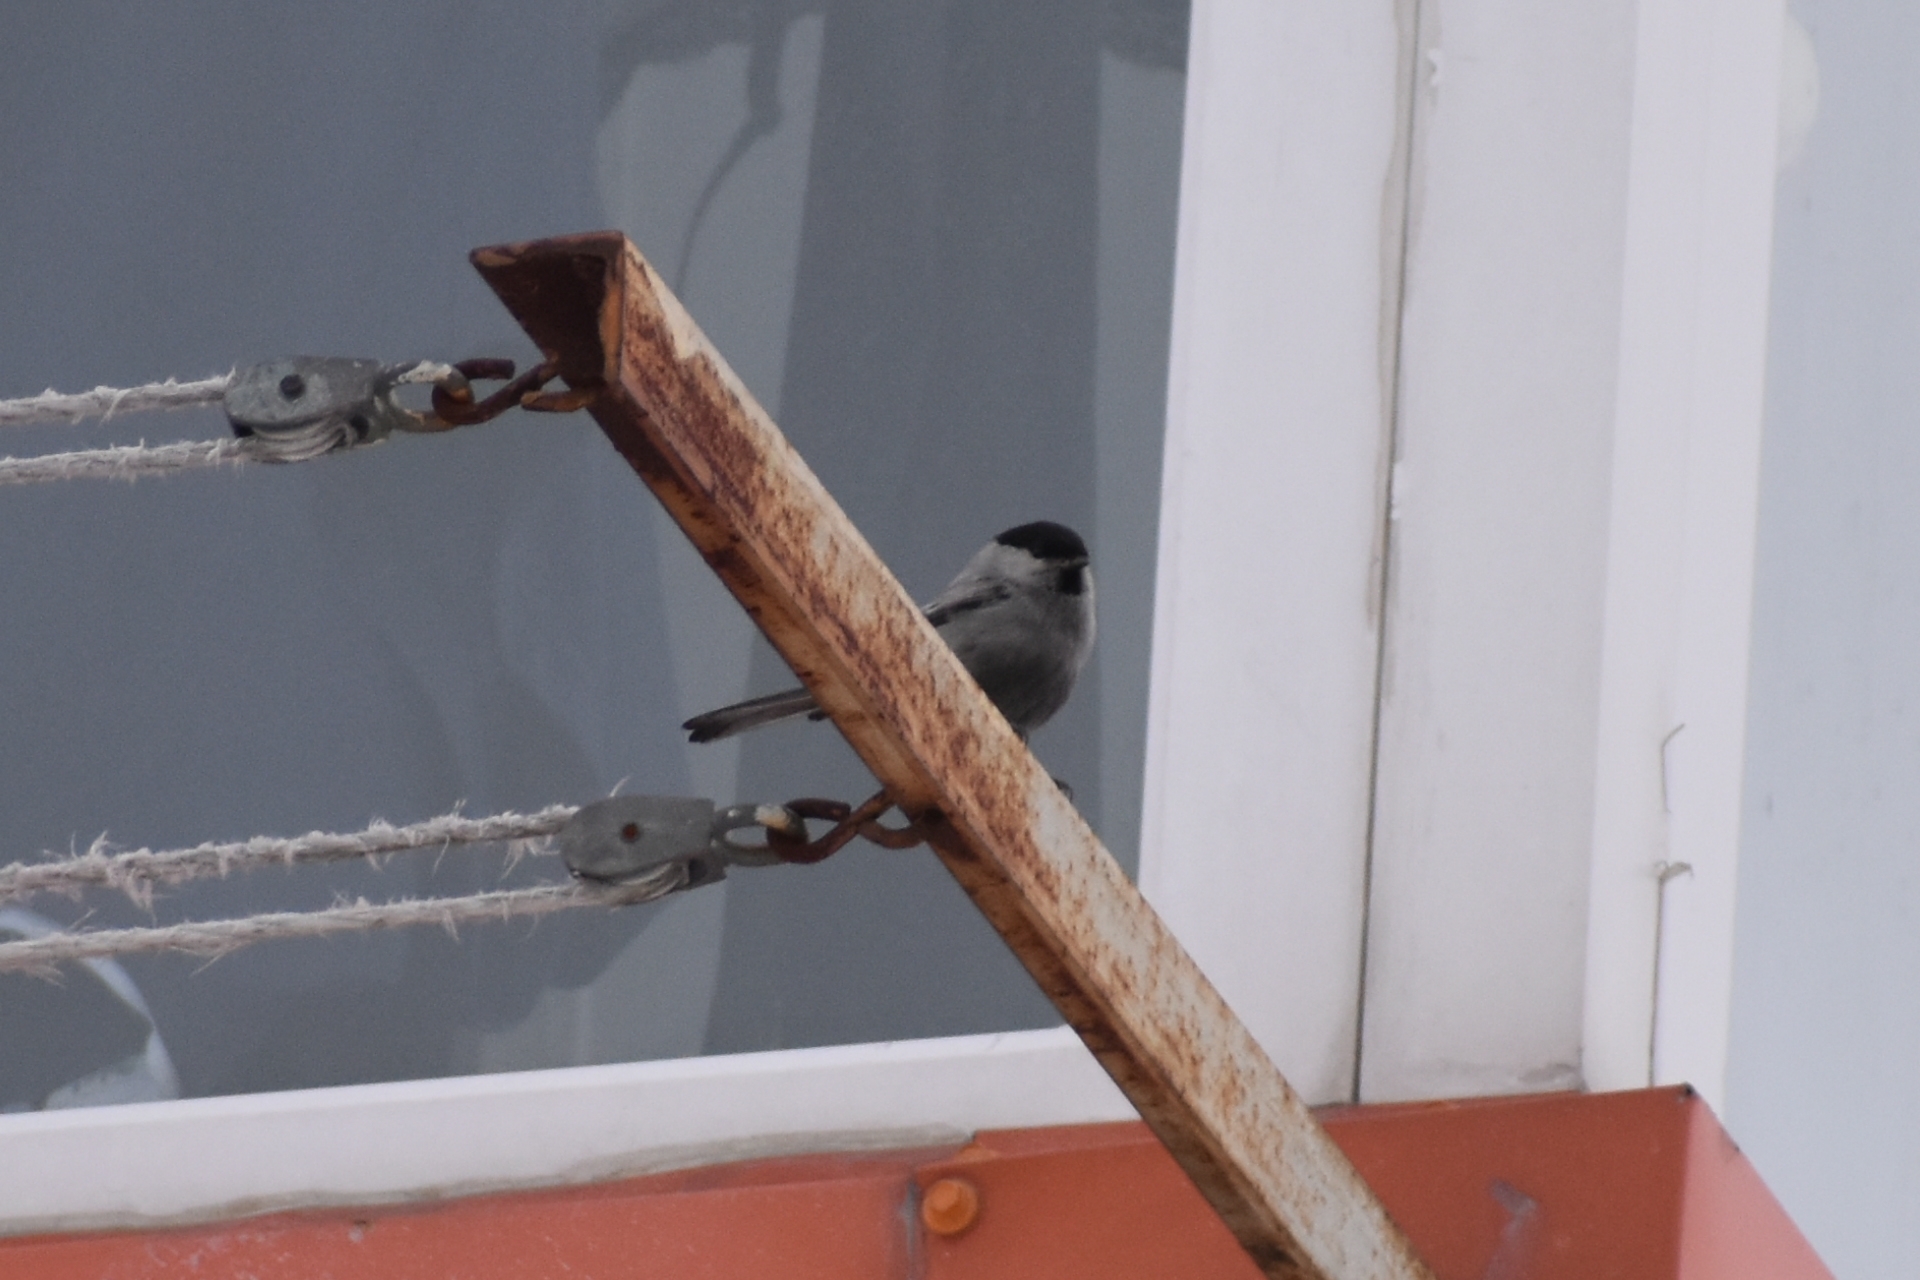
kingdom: Animalia
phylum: Chordata
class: Aves
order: Passeriformes
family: Paridae
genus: Poecile
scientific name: Poecile montanus
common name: Willow tit
